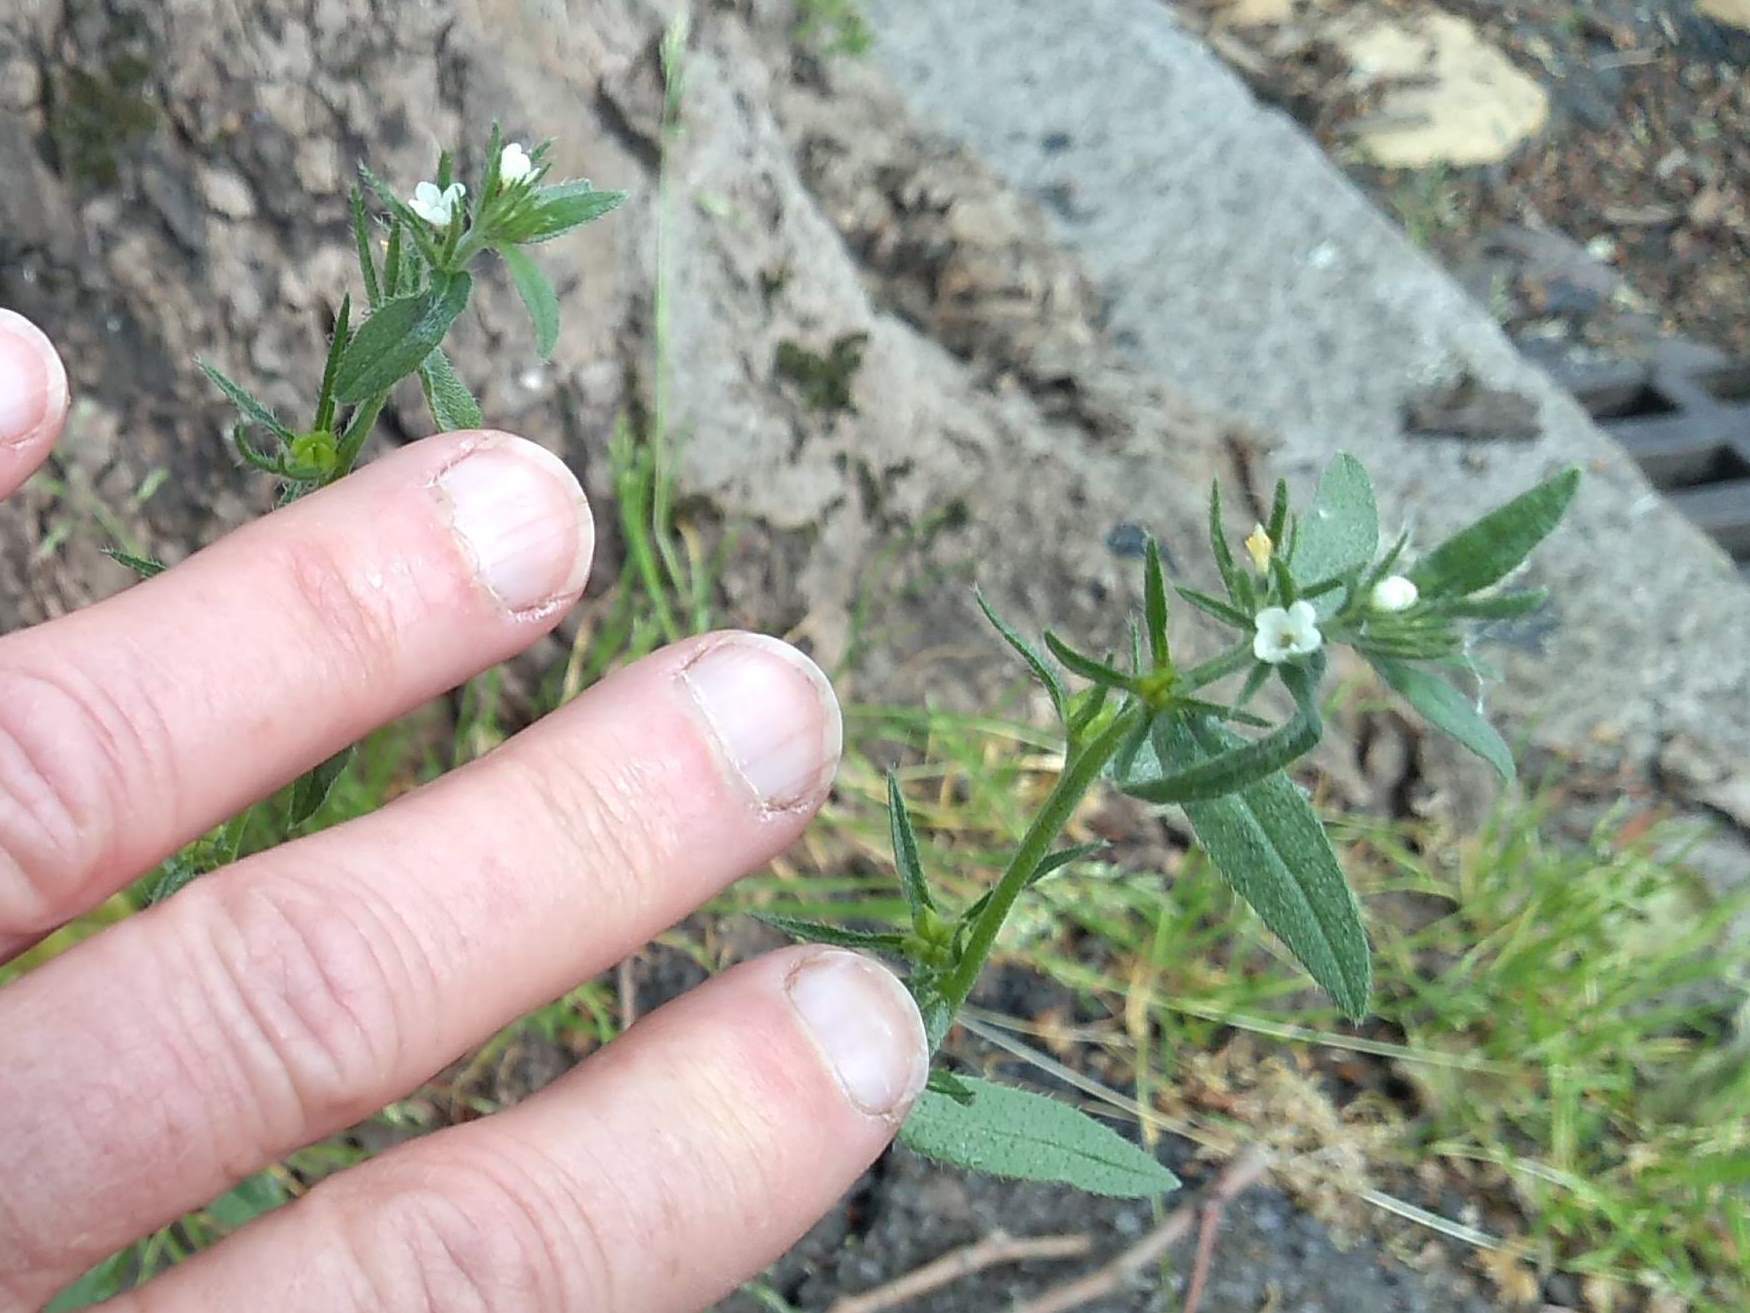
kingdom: Plantae
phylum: Tracheophyta
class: Magnoliopsida
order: Boraginales
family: Boraginaceae
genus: Buglossoides
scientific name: Buglossoides arvensis
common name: Corn gromwell
